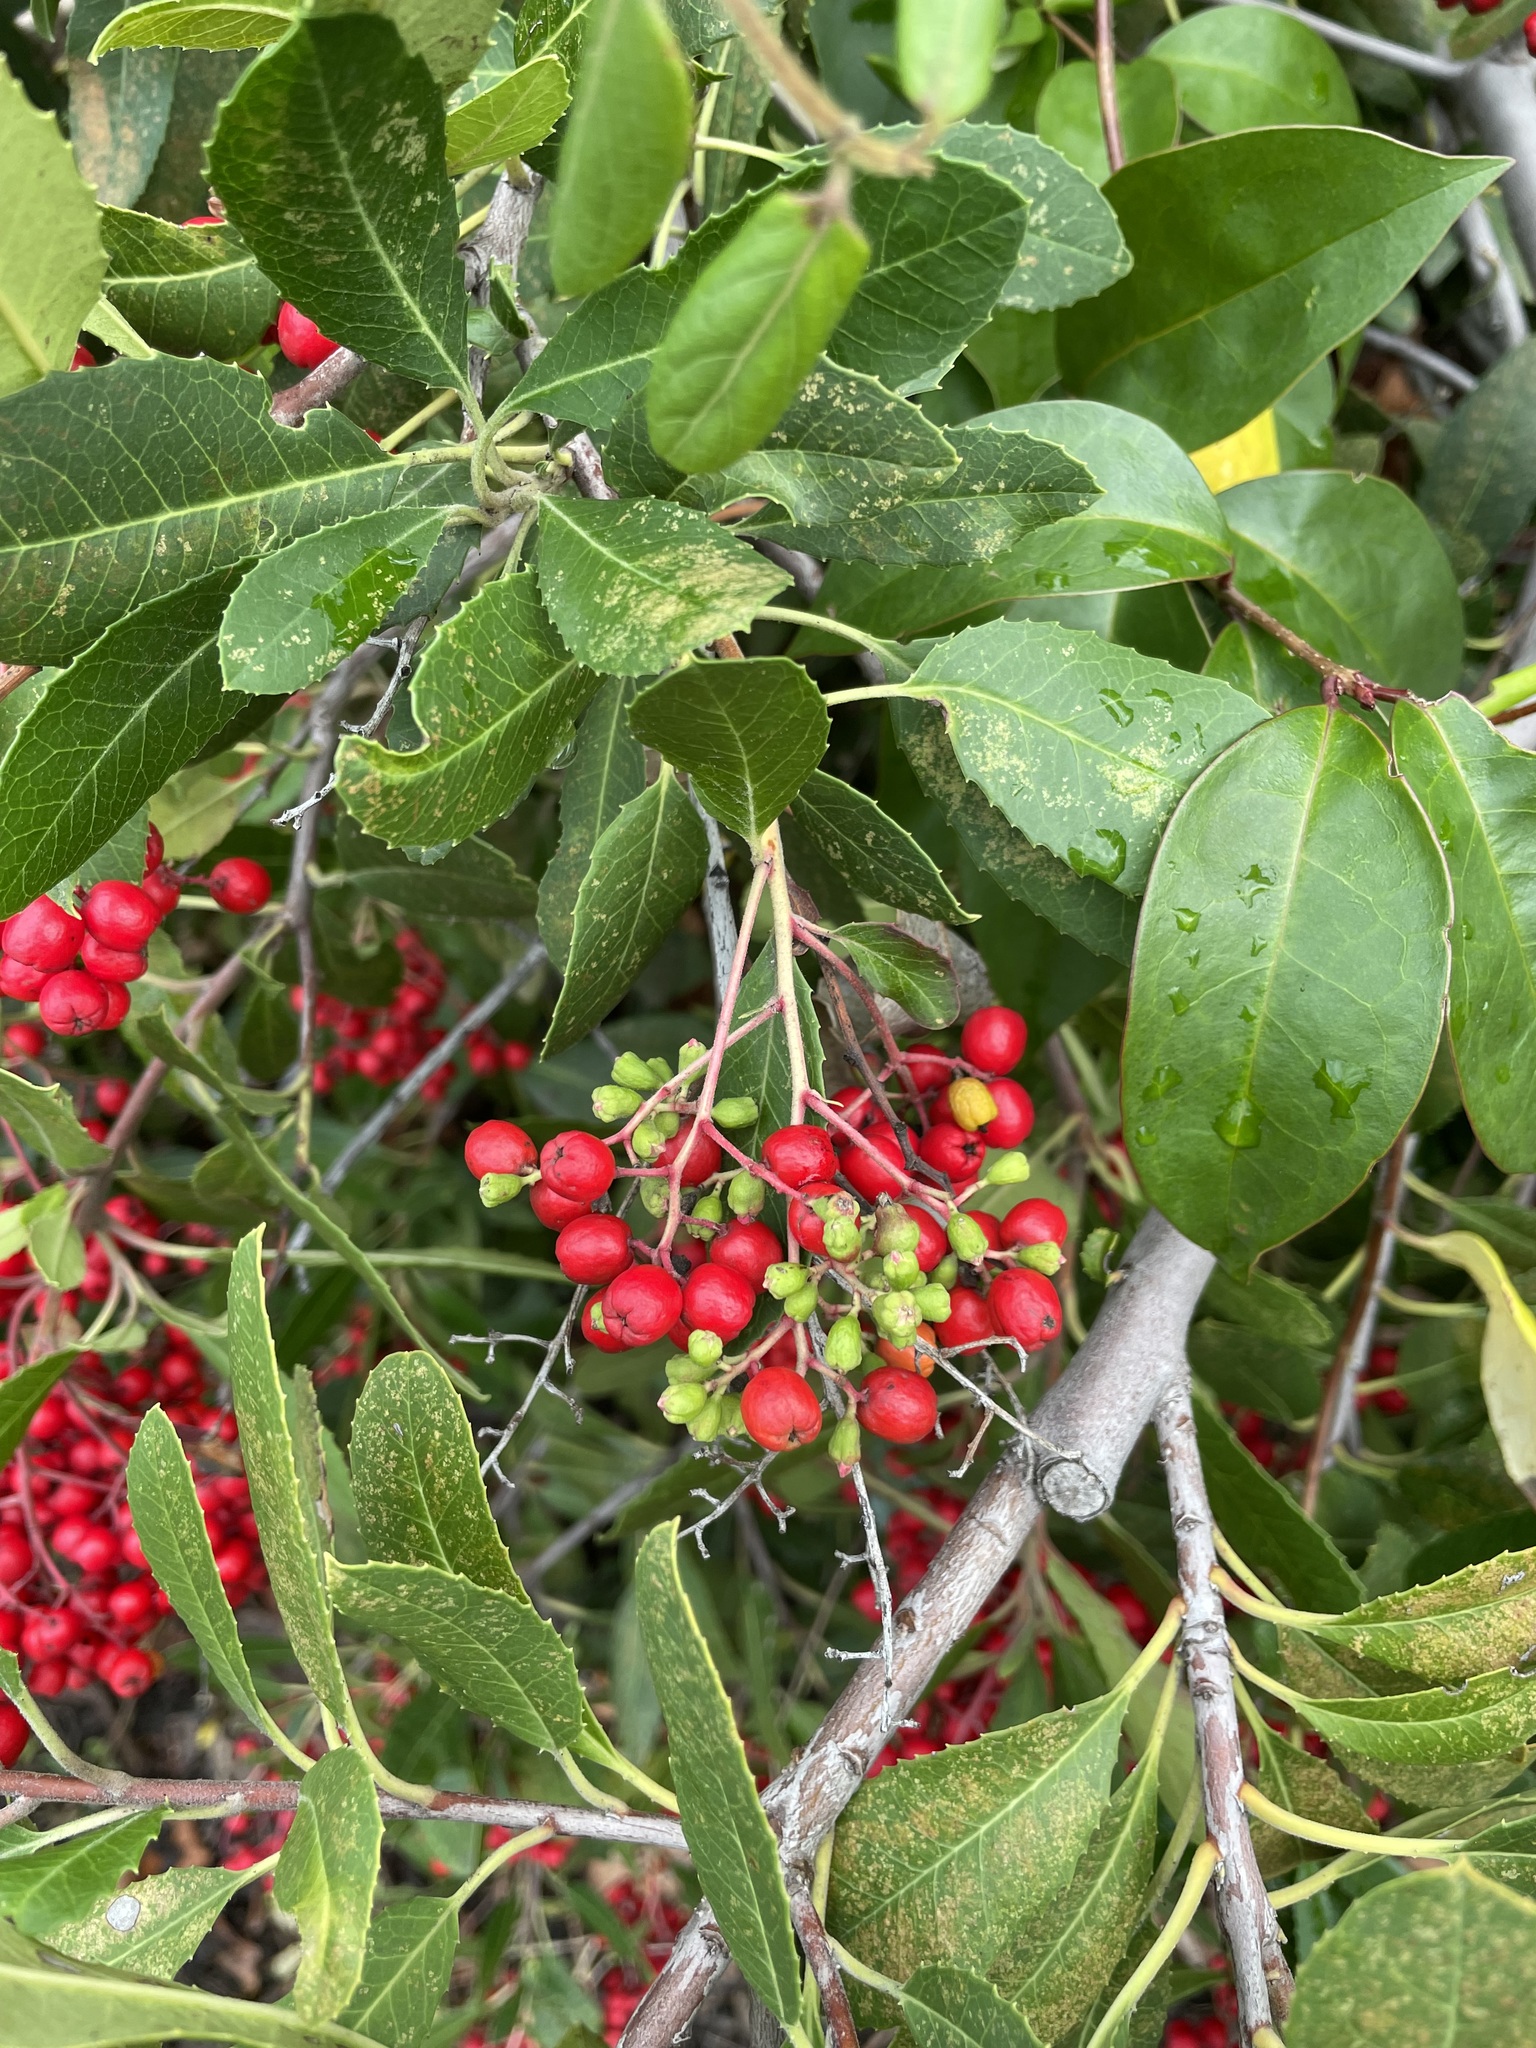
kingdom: Plantae
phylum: Tracheophyta
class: Magnoliopsida
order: Rosales
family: Rosaceae
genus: Heteromeles
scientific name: Heteromeles arbutifolia
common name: California-holly
